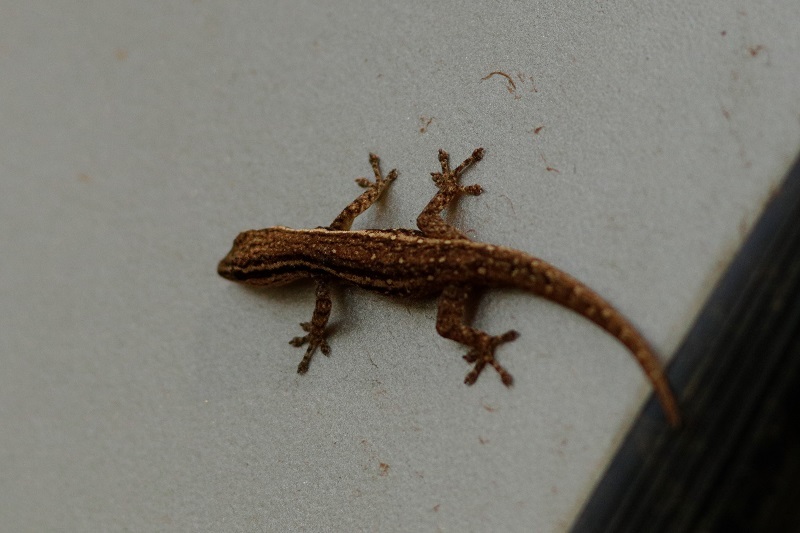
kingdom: Animalia
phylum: Chordata
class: Squamata
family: Gekkonidae
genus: Lygodactylus
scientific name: Lygodactylus capensis
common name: Cape dwarf gecko
